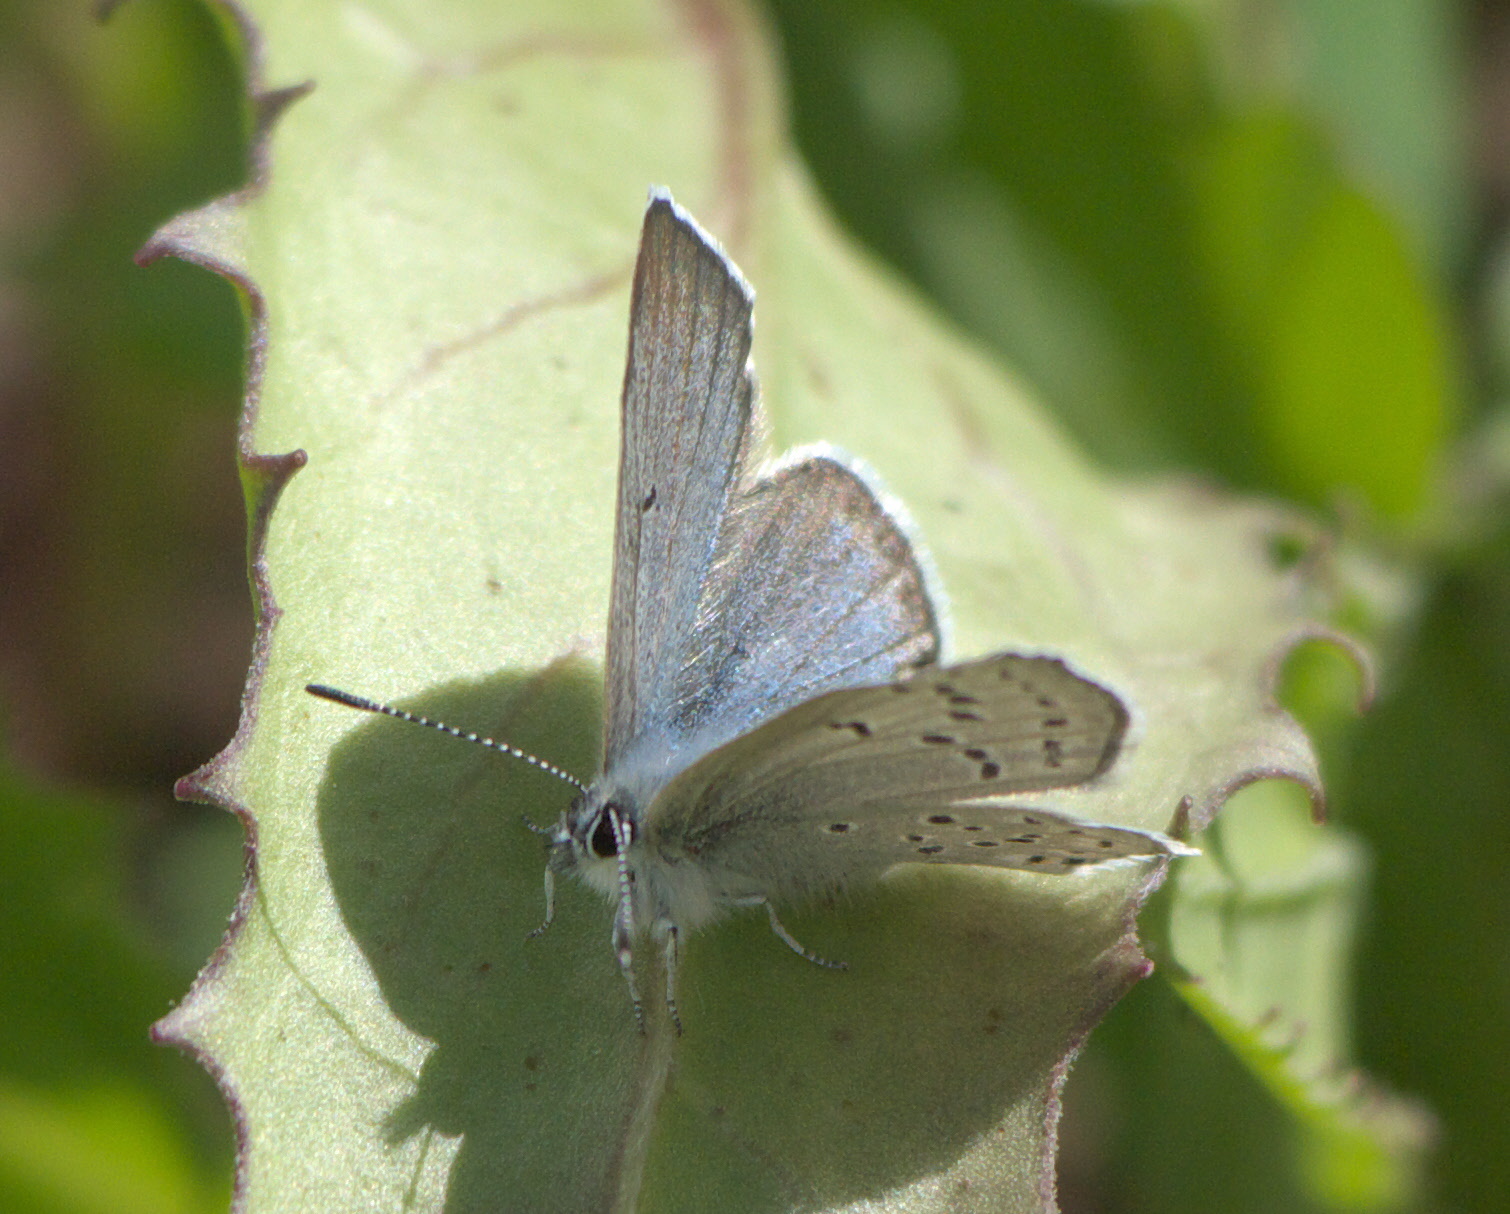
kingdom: Animalia
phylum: Arthropoda
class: Insecta
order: Lepidoptera
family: Lycaenidae
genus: Icaricia
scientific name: Icaricia saepiolus
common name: Greenish blue
